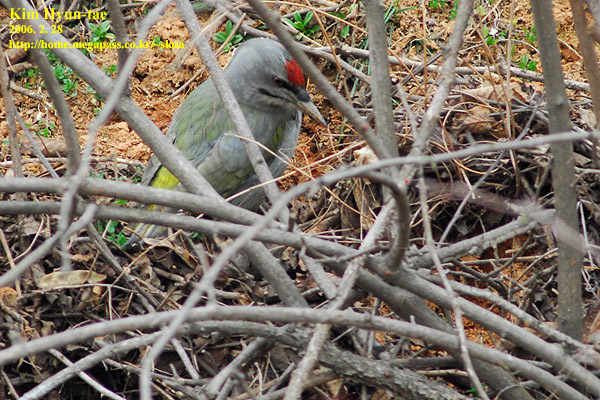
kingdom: Animalia
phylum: Chordata
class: Aves
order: Piciformes
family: Picidae
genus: Picus
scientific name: Picus canus
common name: Grey-headed woodpecker
